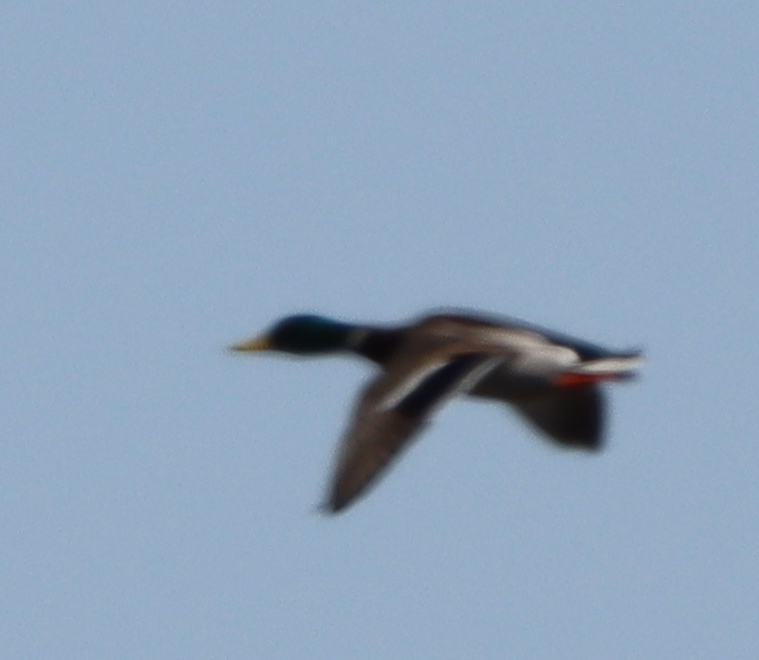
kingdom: Animalia
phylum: Chordata
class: Aves
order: Anseriformes
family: Anatidae
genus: Anas
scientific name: Anas platyrhynchos
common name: Mallard
